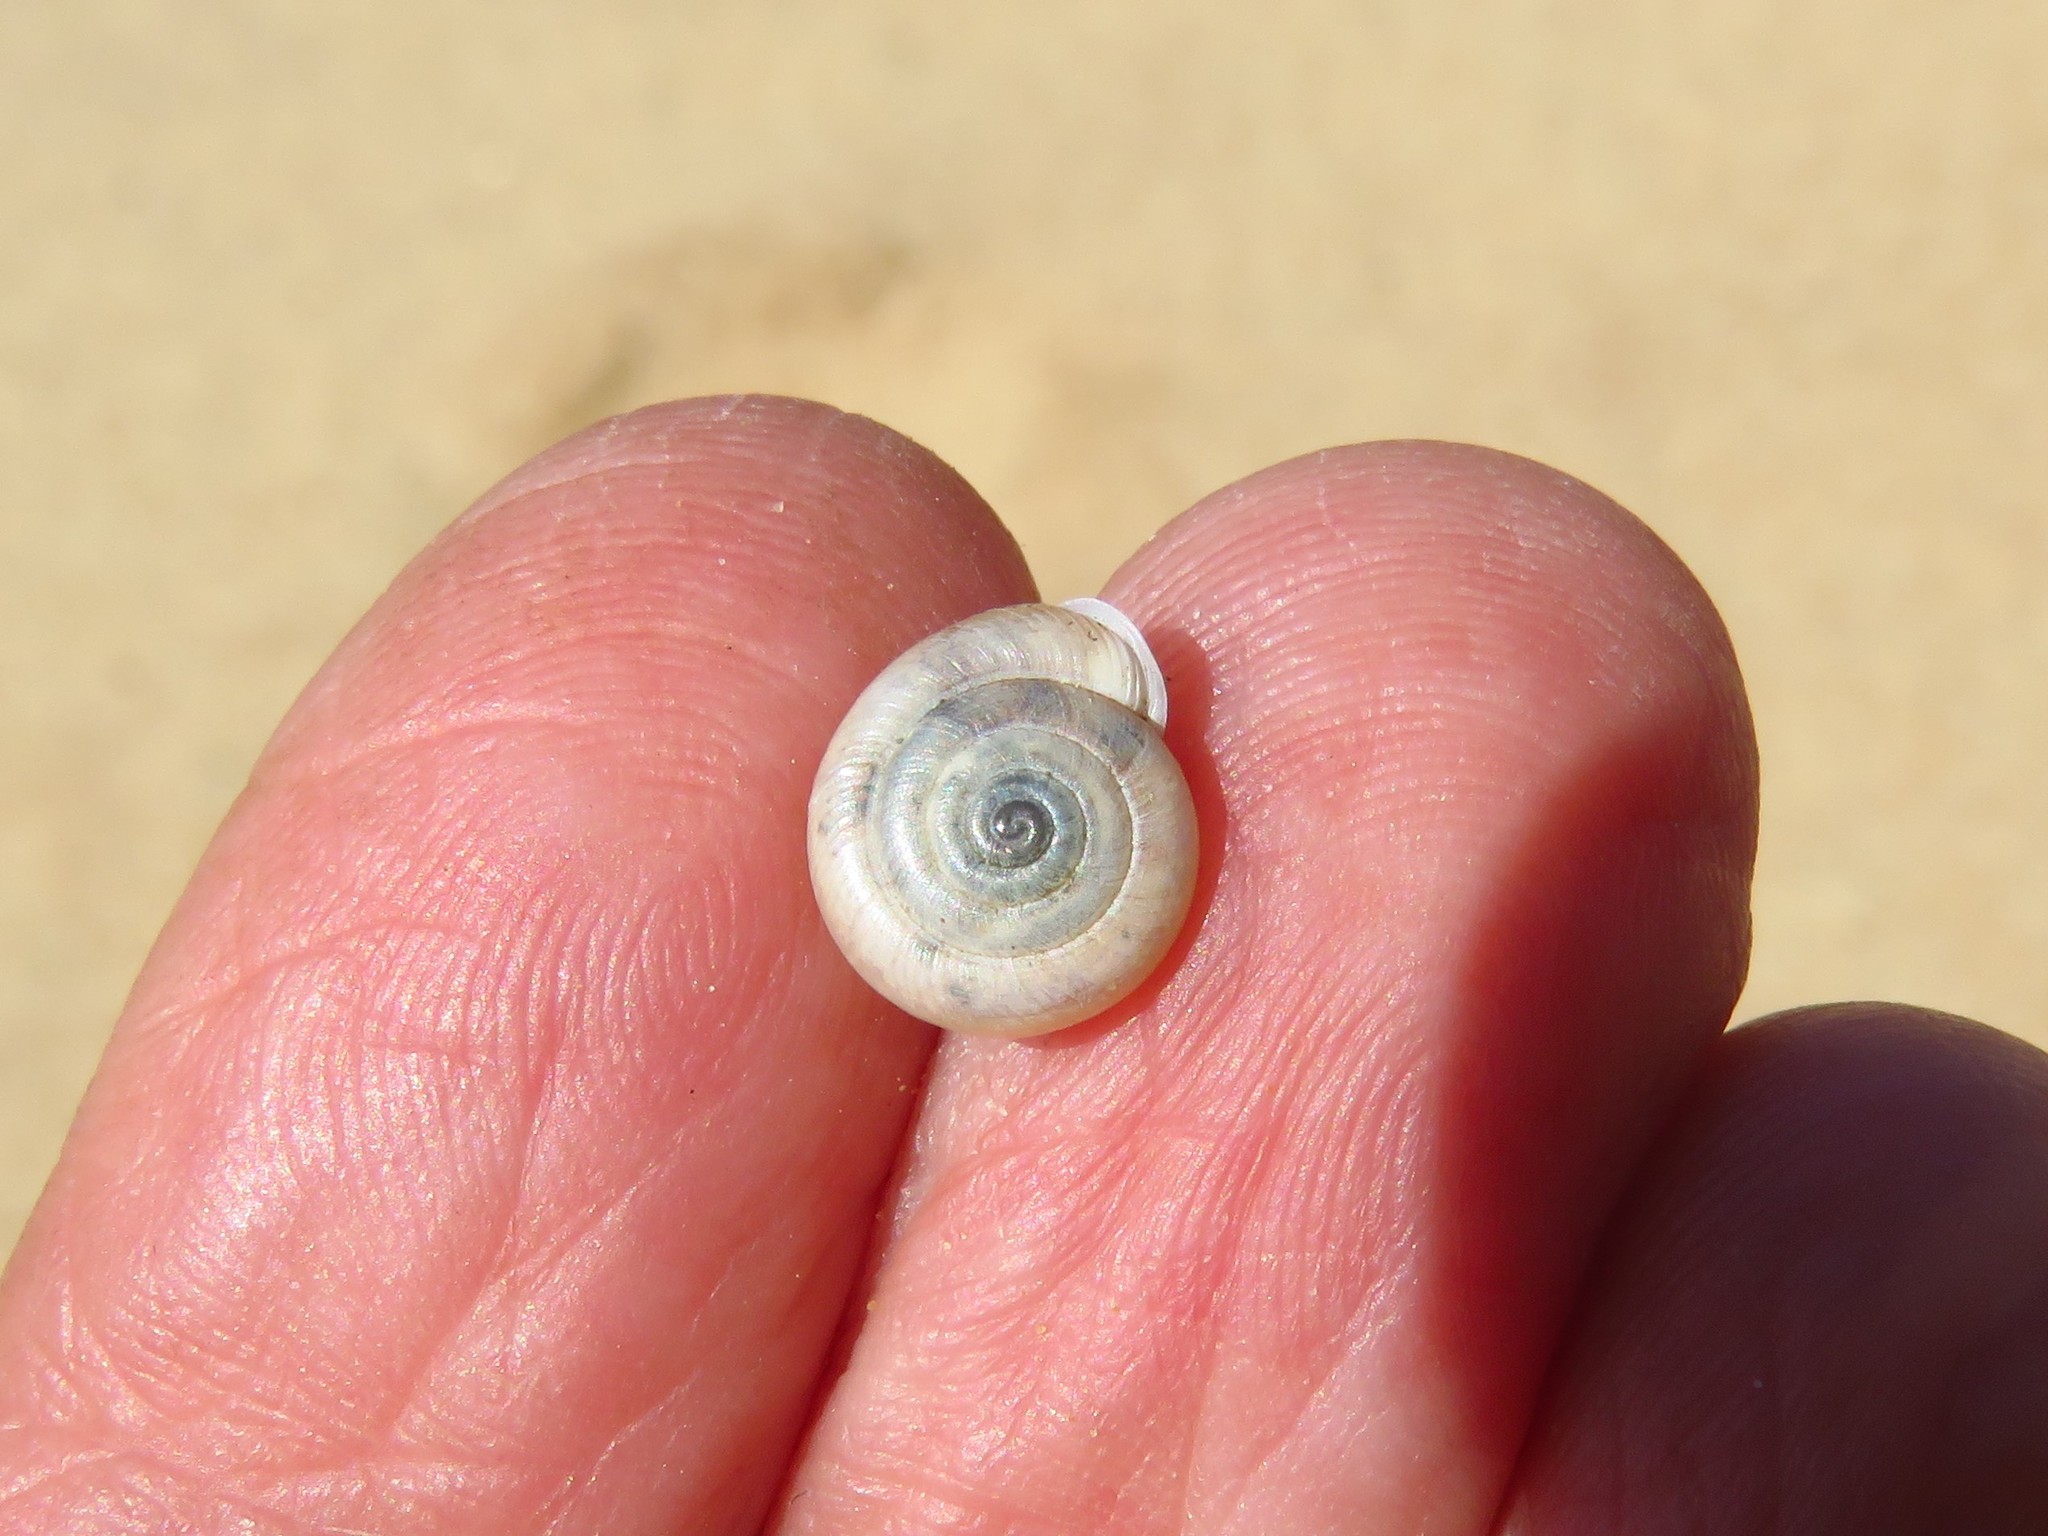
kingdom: Animalia
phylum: Mollusca
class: Gastropoda
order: Stylommatophora
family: Polygyridae
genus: Linisa
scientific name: Linisa texasiana
